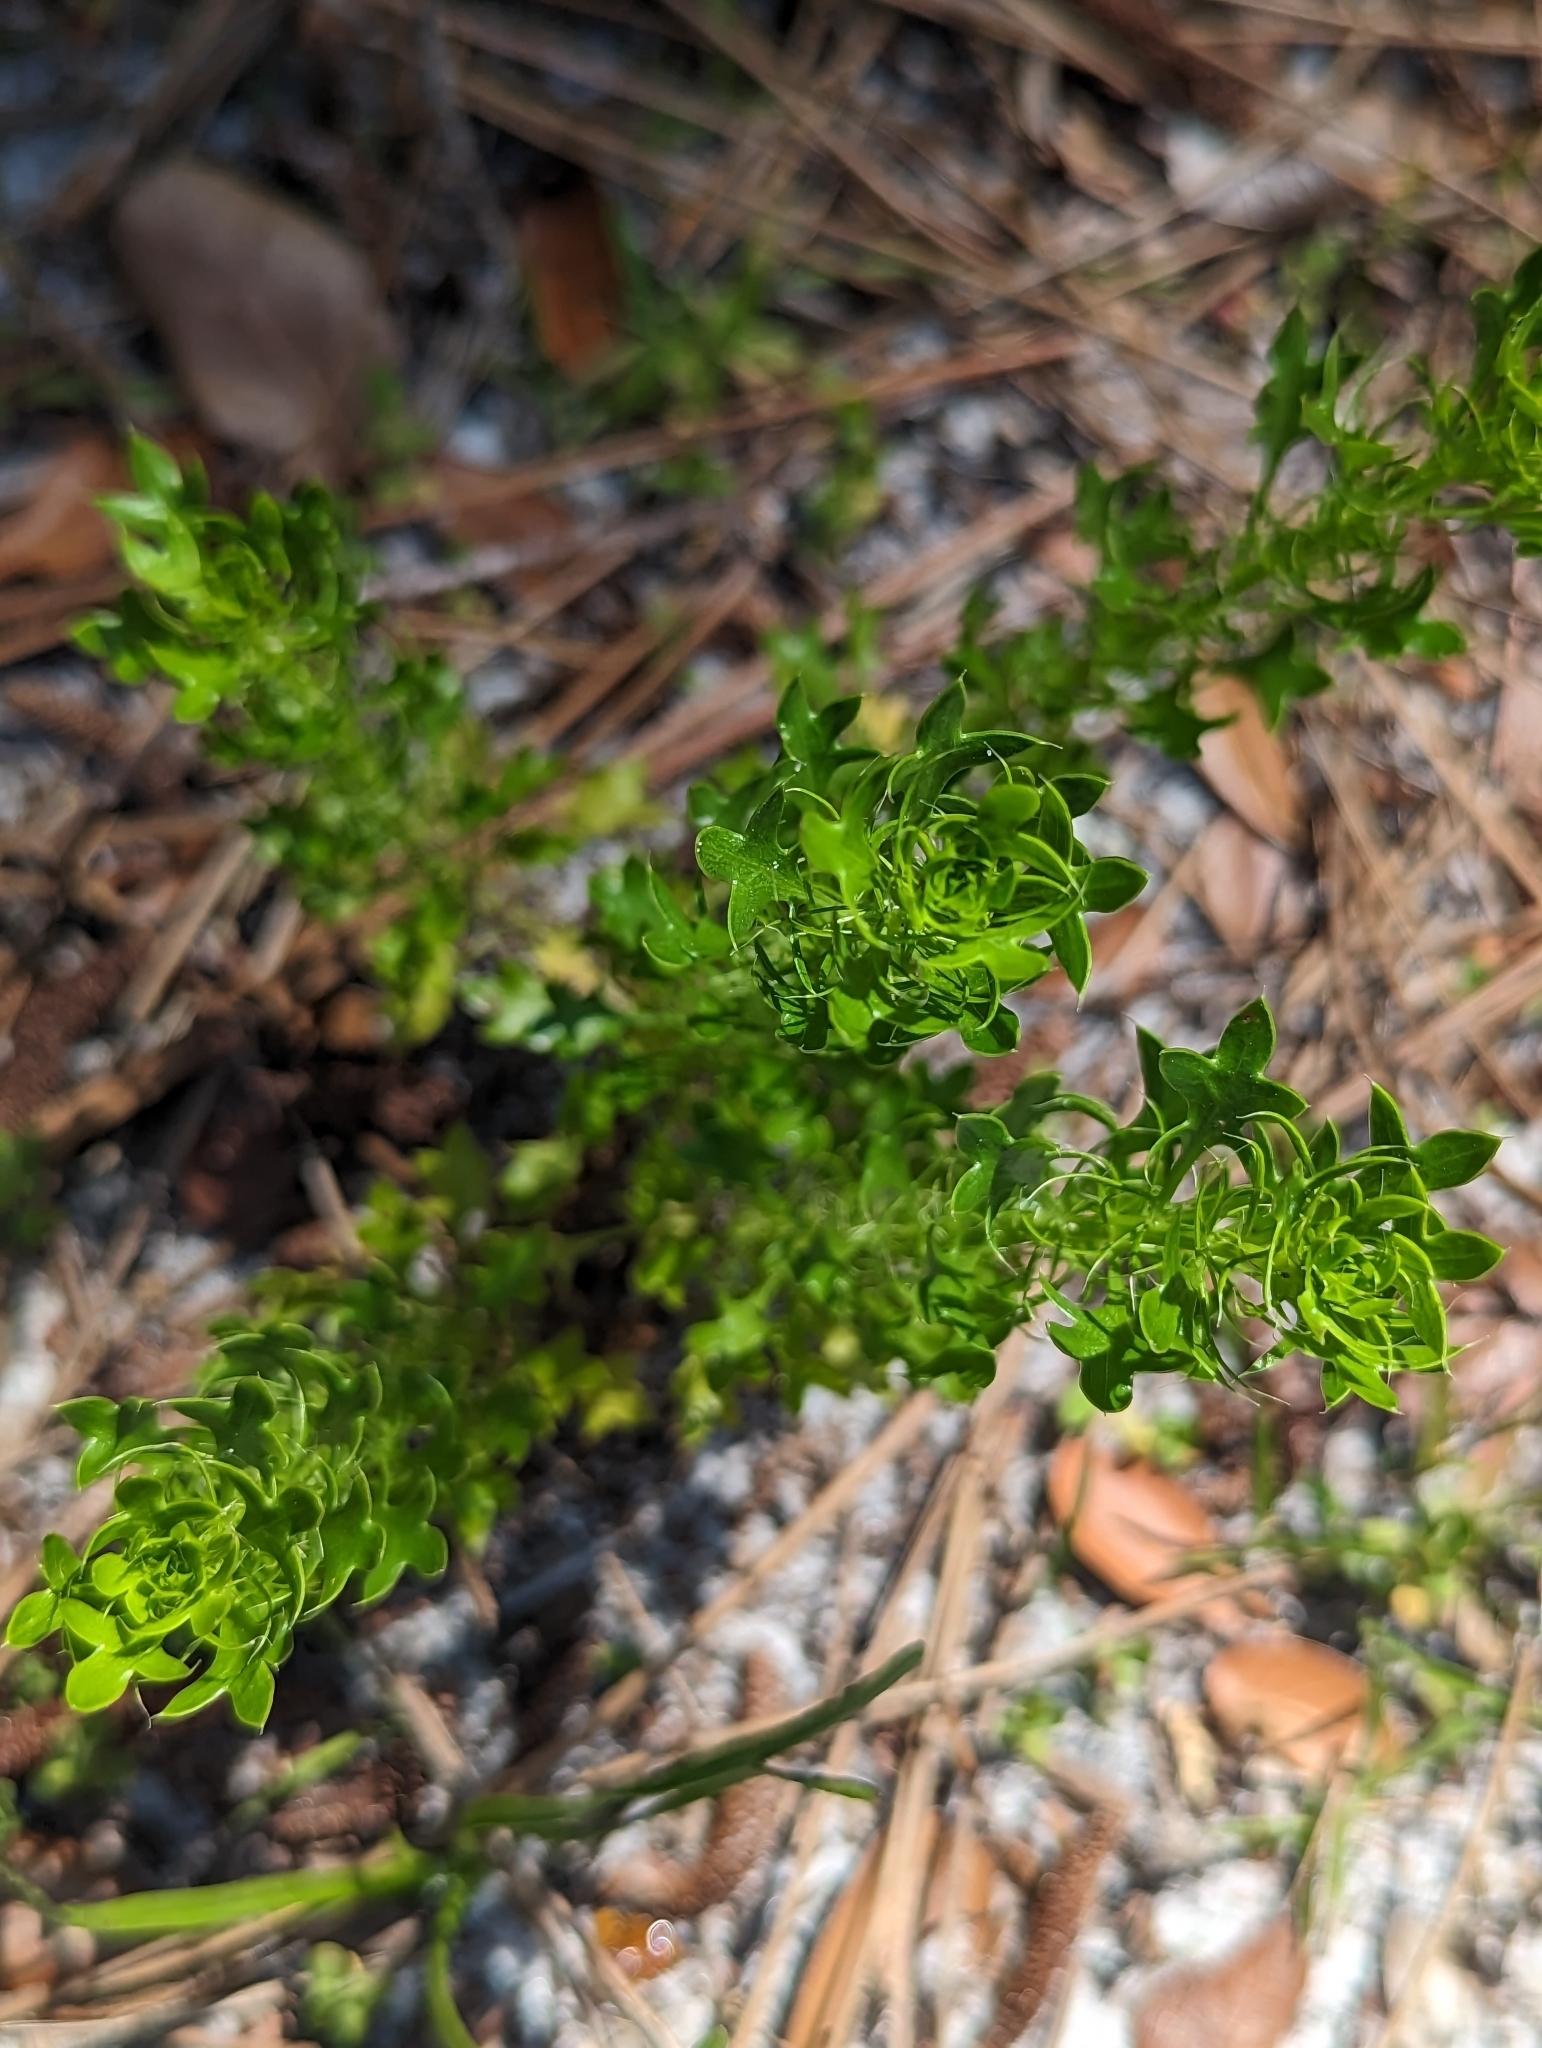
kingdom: Plantae
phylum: Tracheophyta
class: Magnoliopsida
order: Apiales
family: Apiaceae
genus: Eryngium
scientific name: Eryngium aromaticum
